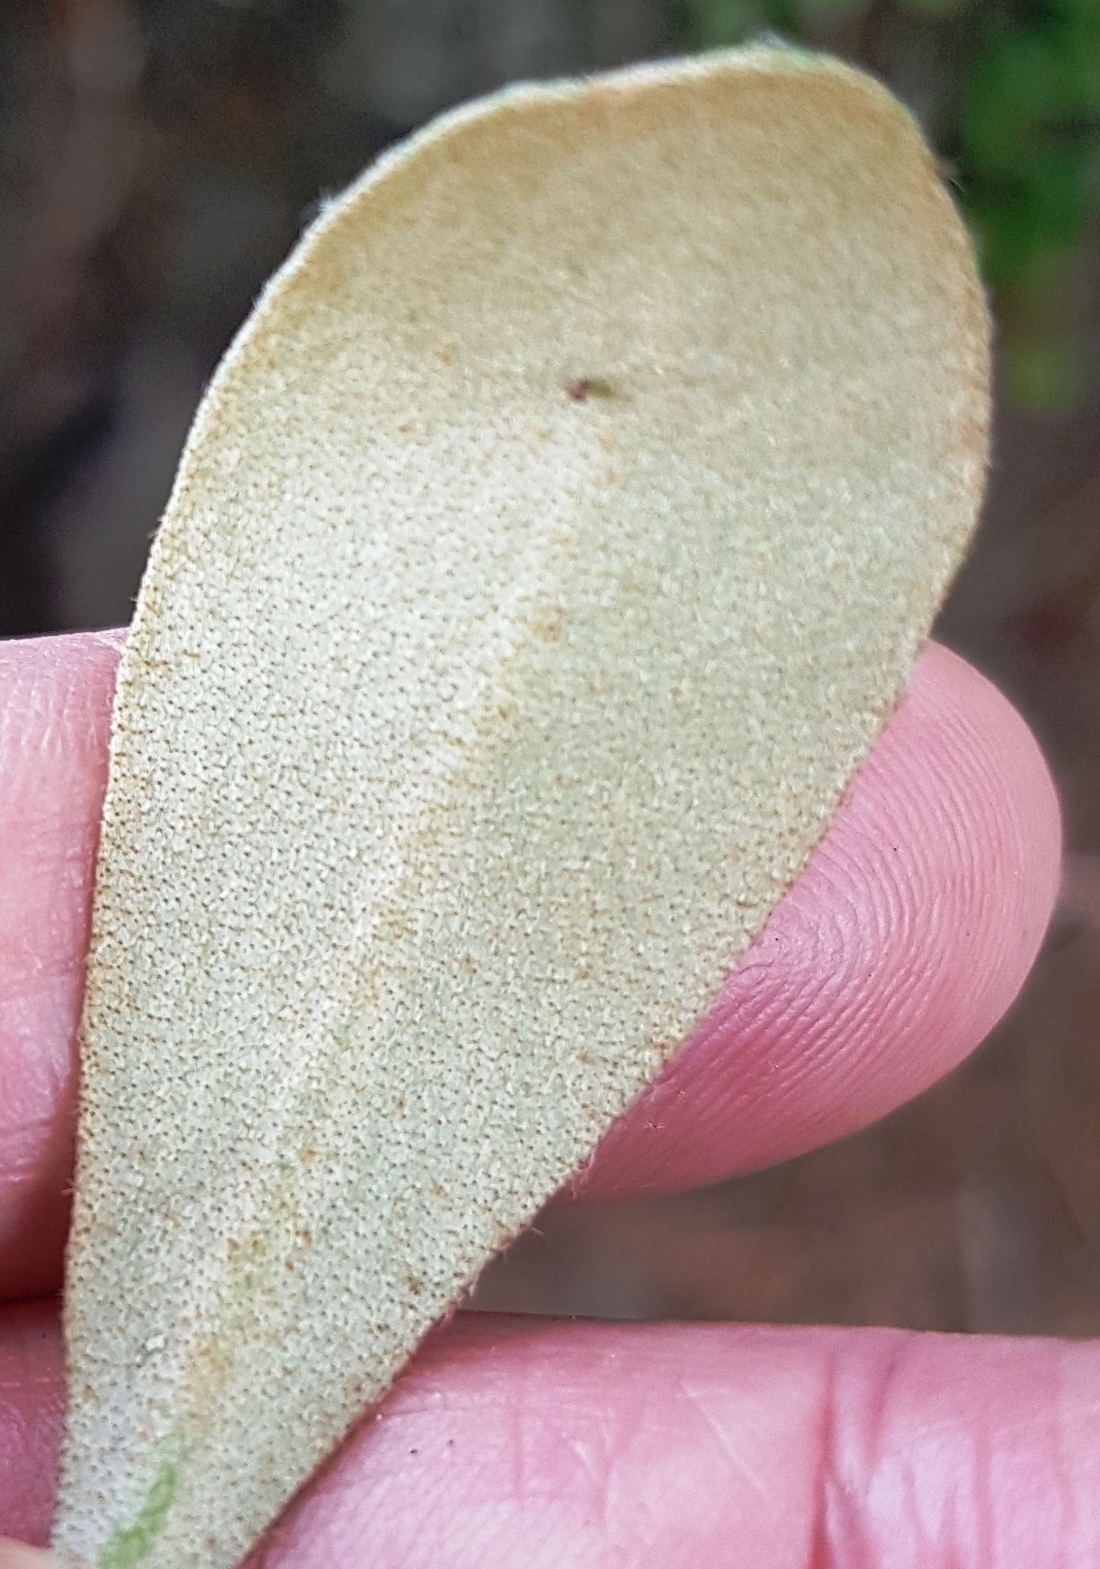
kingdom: Plantae
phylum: Tracheophyta
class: Polypodiopsida
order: Polypodiales
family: Polypodiaceae
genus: Pyrrosia
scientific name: Pyrrosia eleagnifolia
